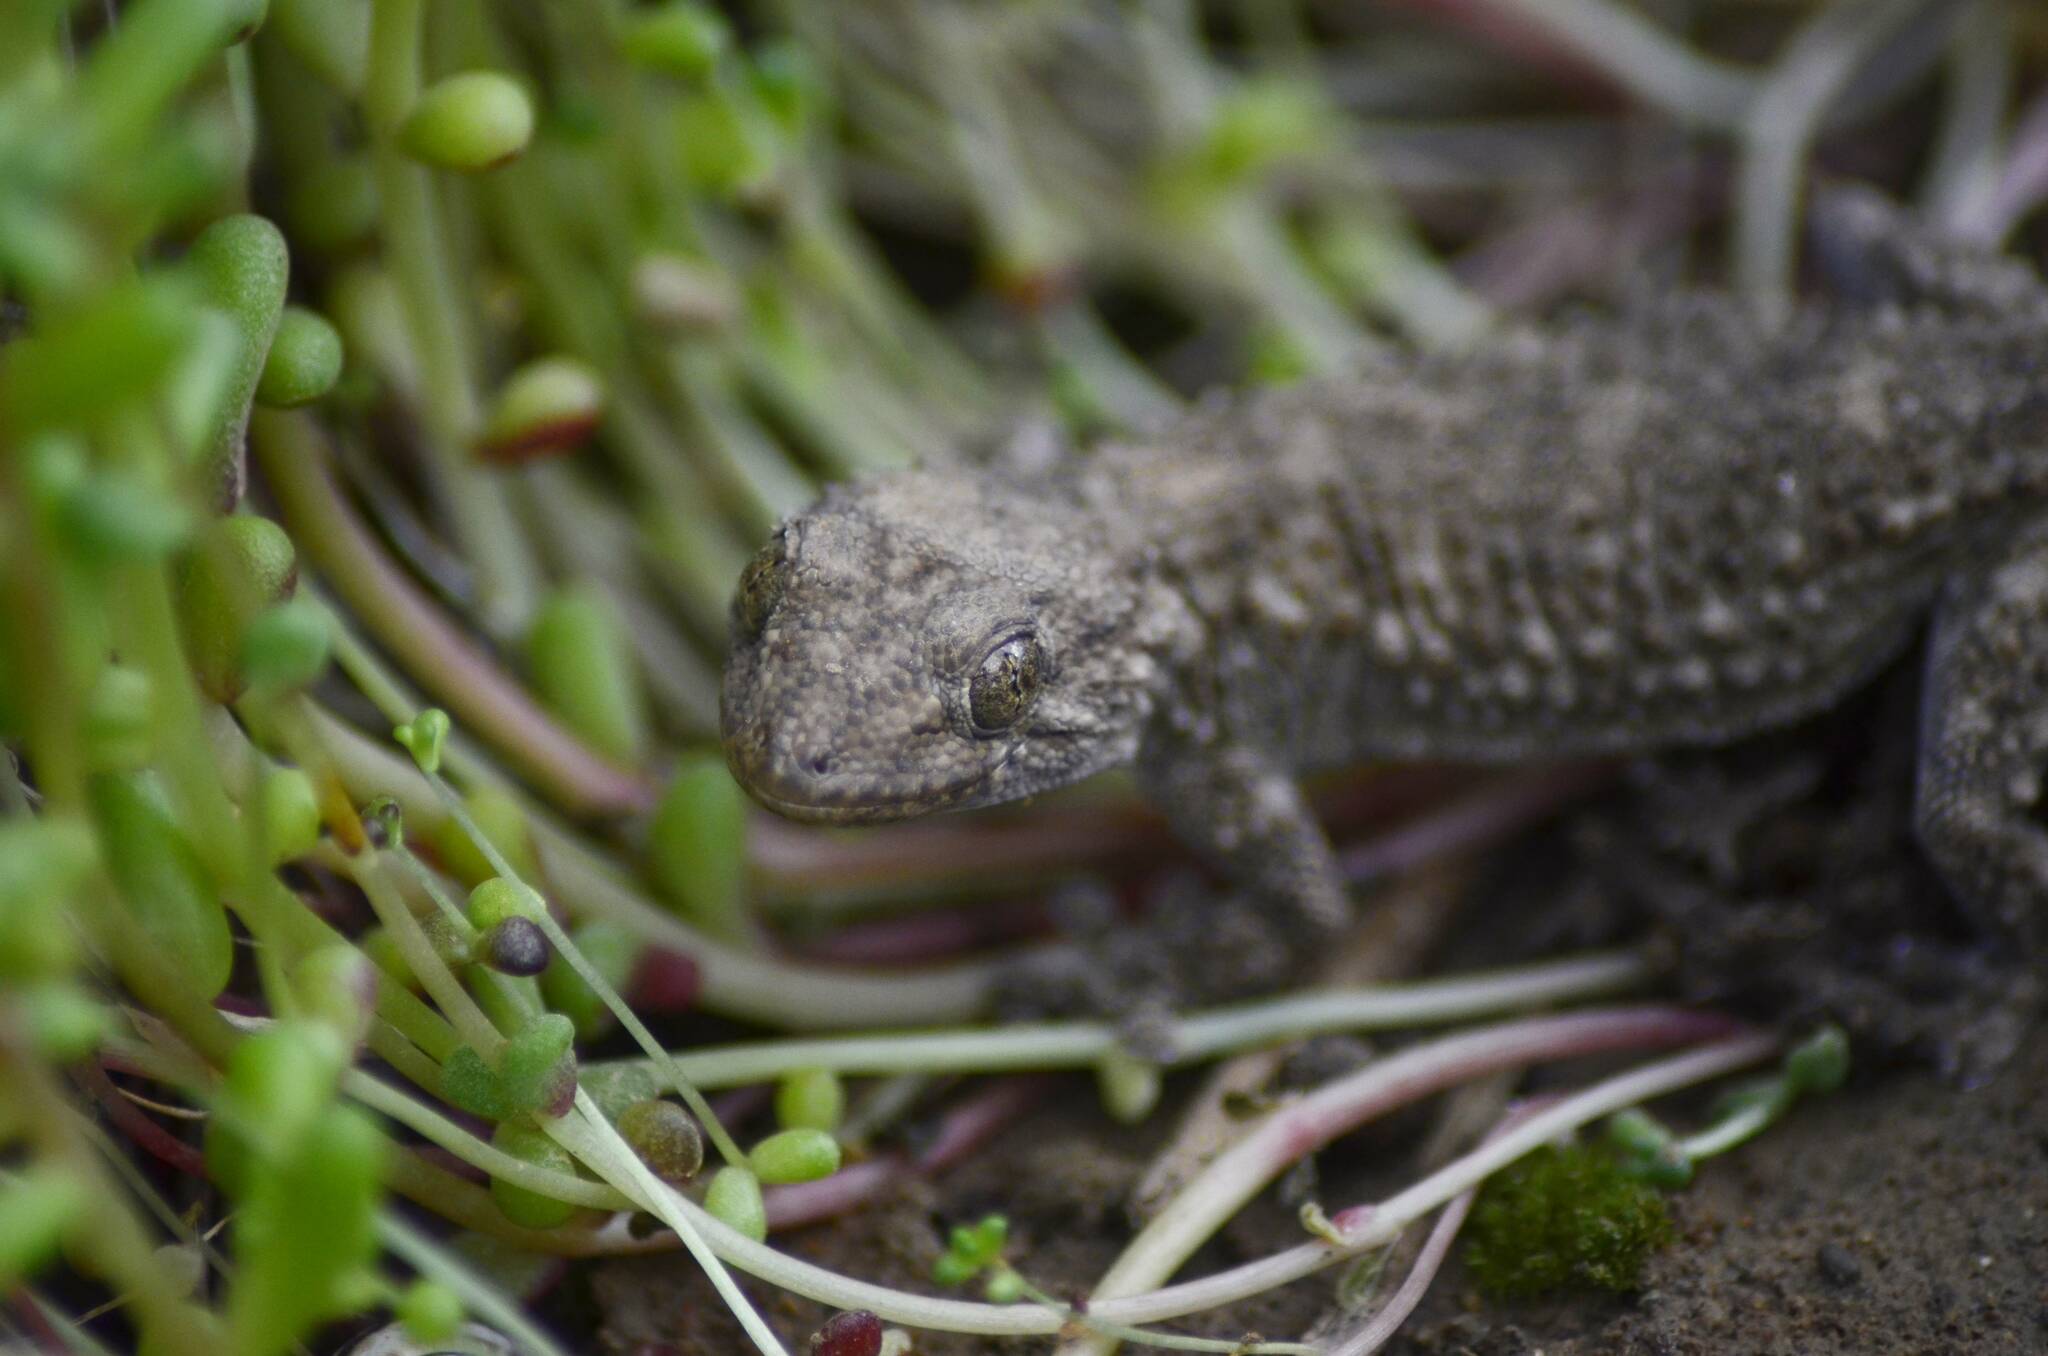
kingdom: Animalia
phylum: Chordata
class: Squamata
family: Phyllodactylidae
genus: Tarentola
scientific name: Tarentola mauritanica
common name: Moorish gecko
